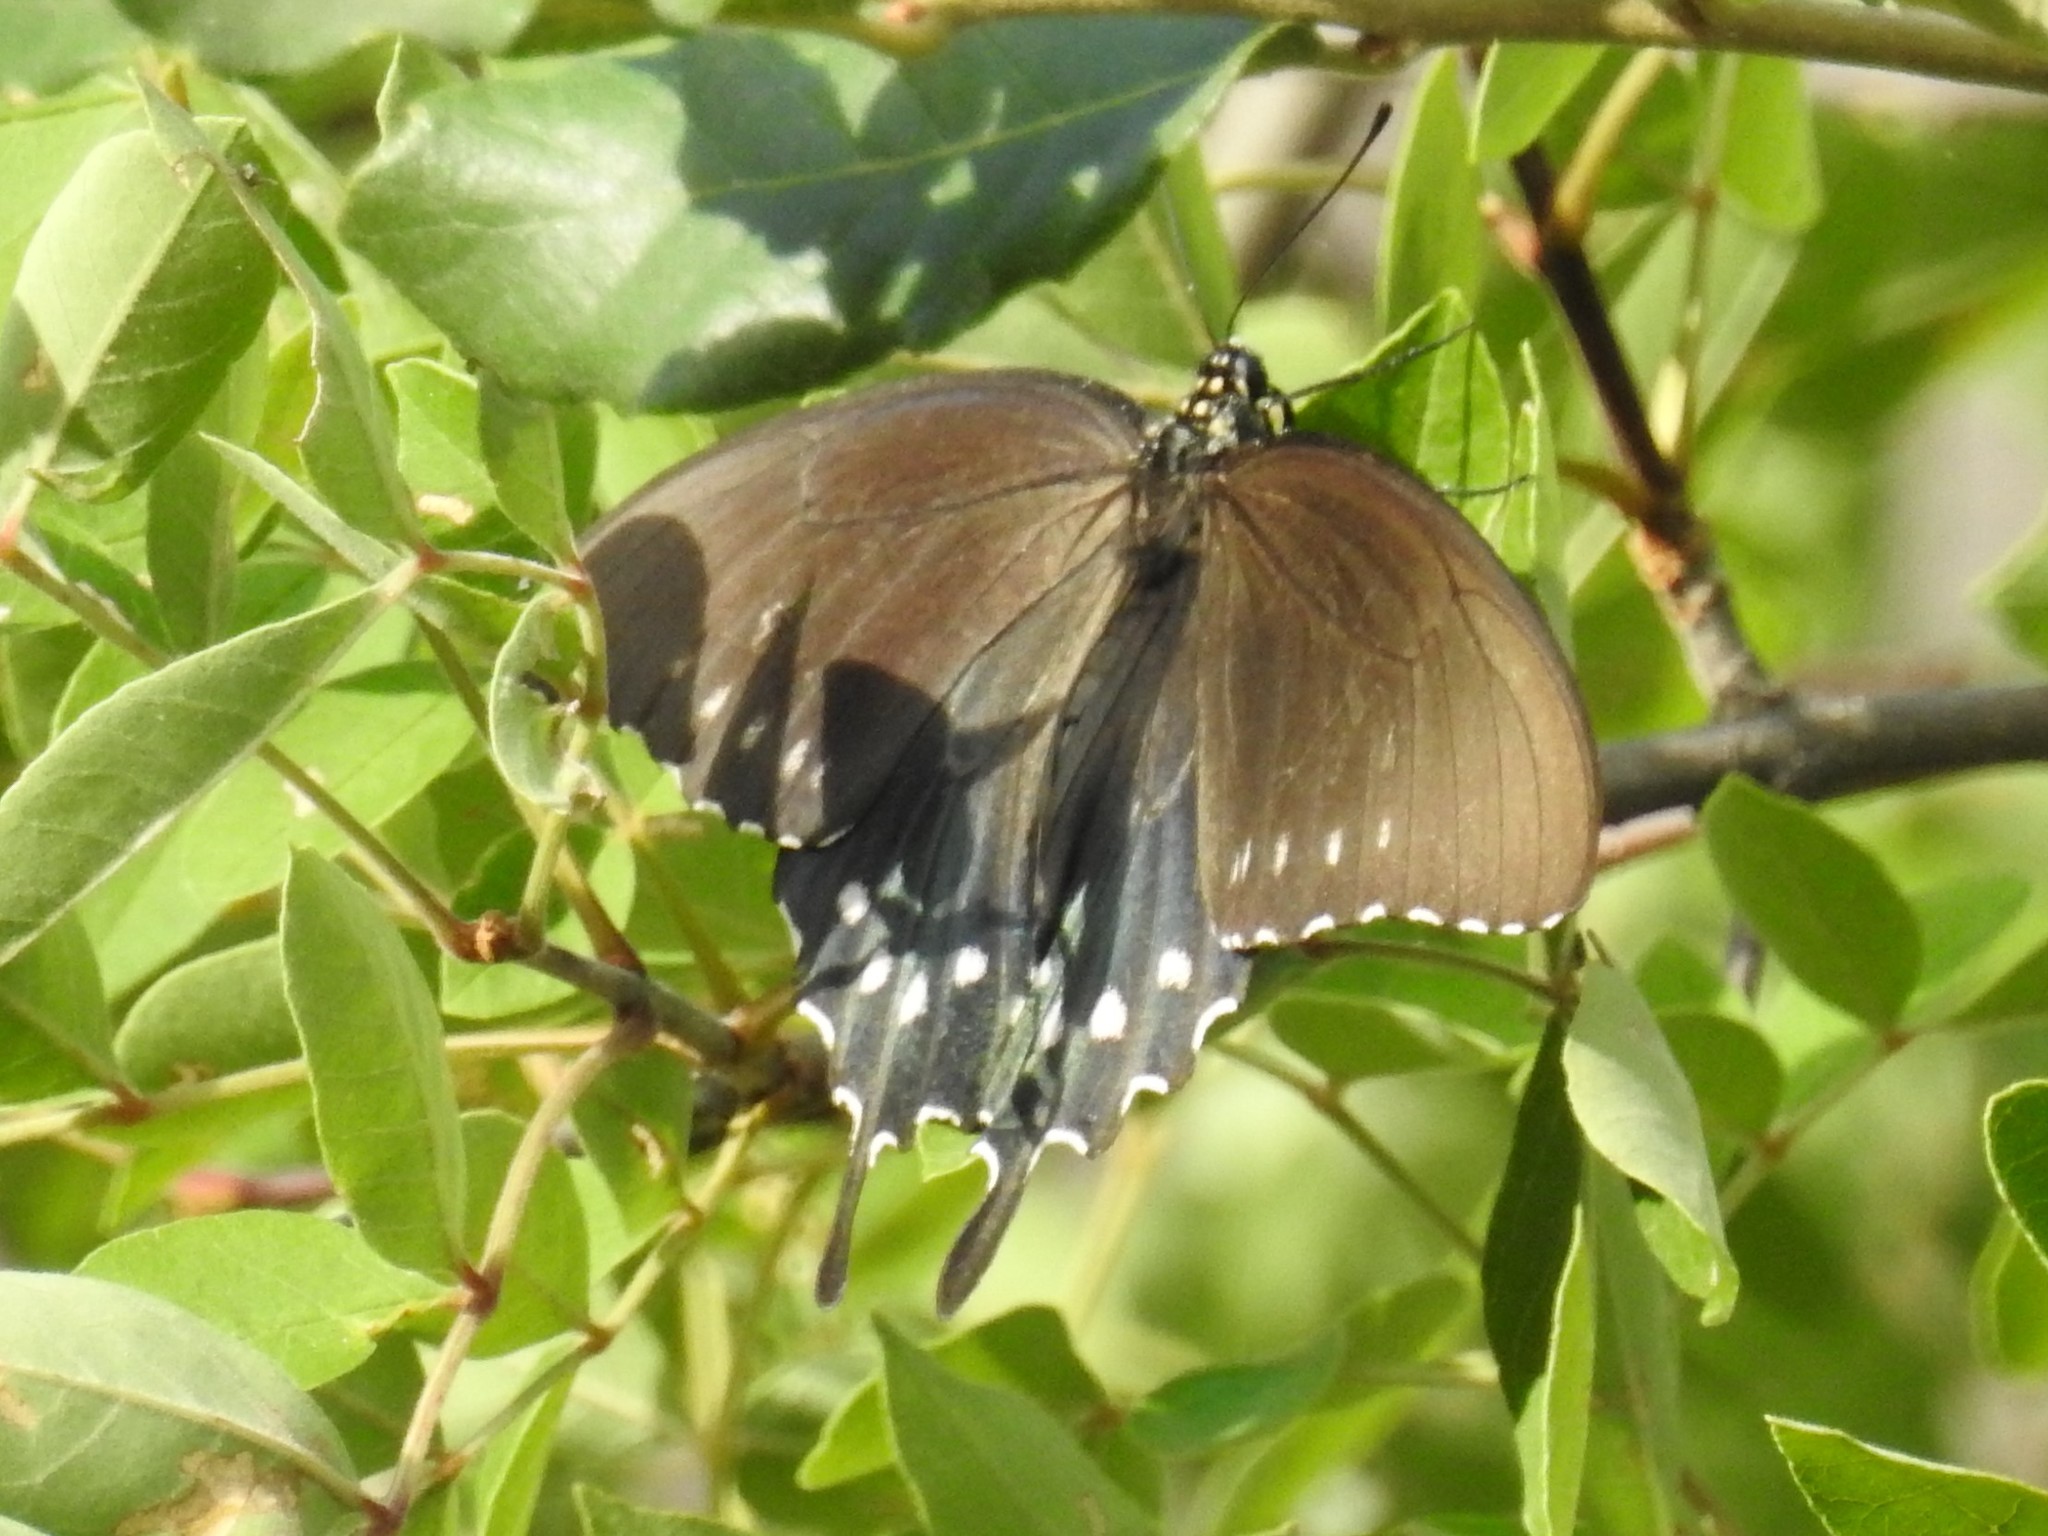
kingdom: Animalia
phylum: Arthropoda
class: Insecta
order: Lepidoptera
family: Papilionidae
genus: Battus
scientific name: Battus philenor
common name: Pipevine swallowtail
